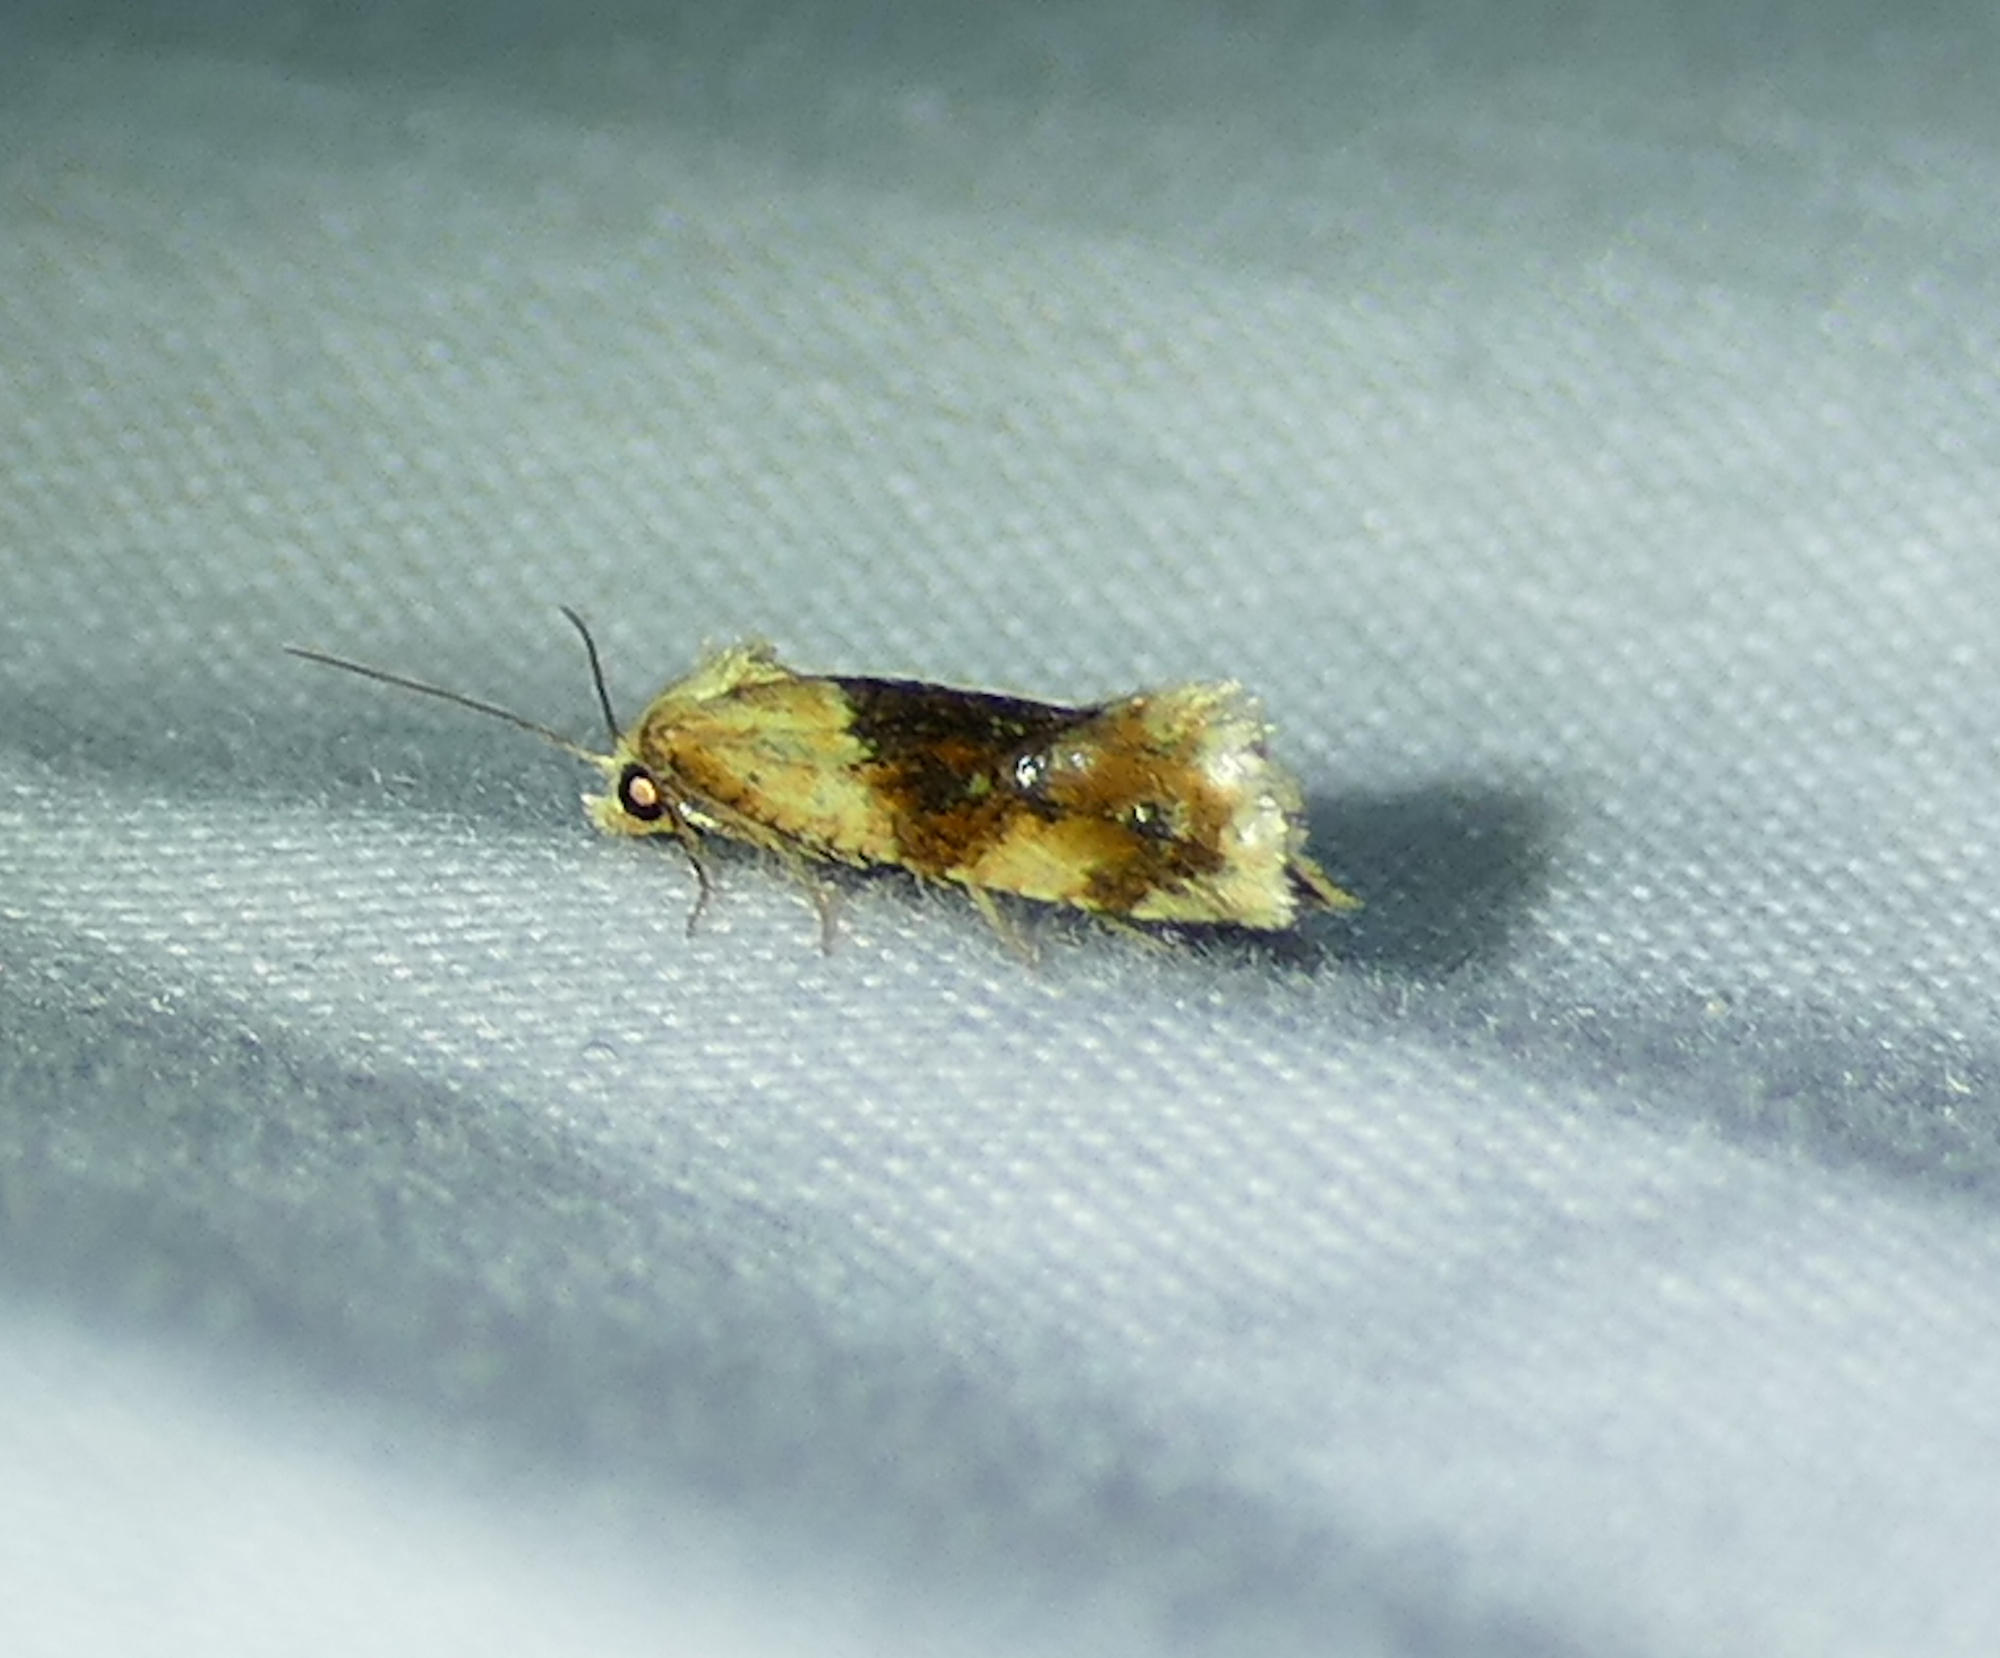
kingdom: Animalia
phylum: Arthropoda
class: Insecta
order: Lepidoptera
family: Tortricidae
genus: Cochylis
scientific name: Cochylis Cochylichroa hospes
